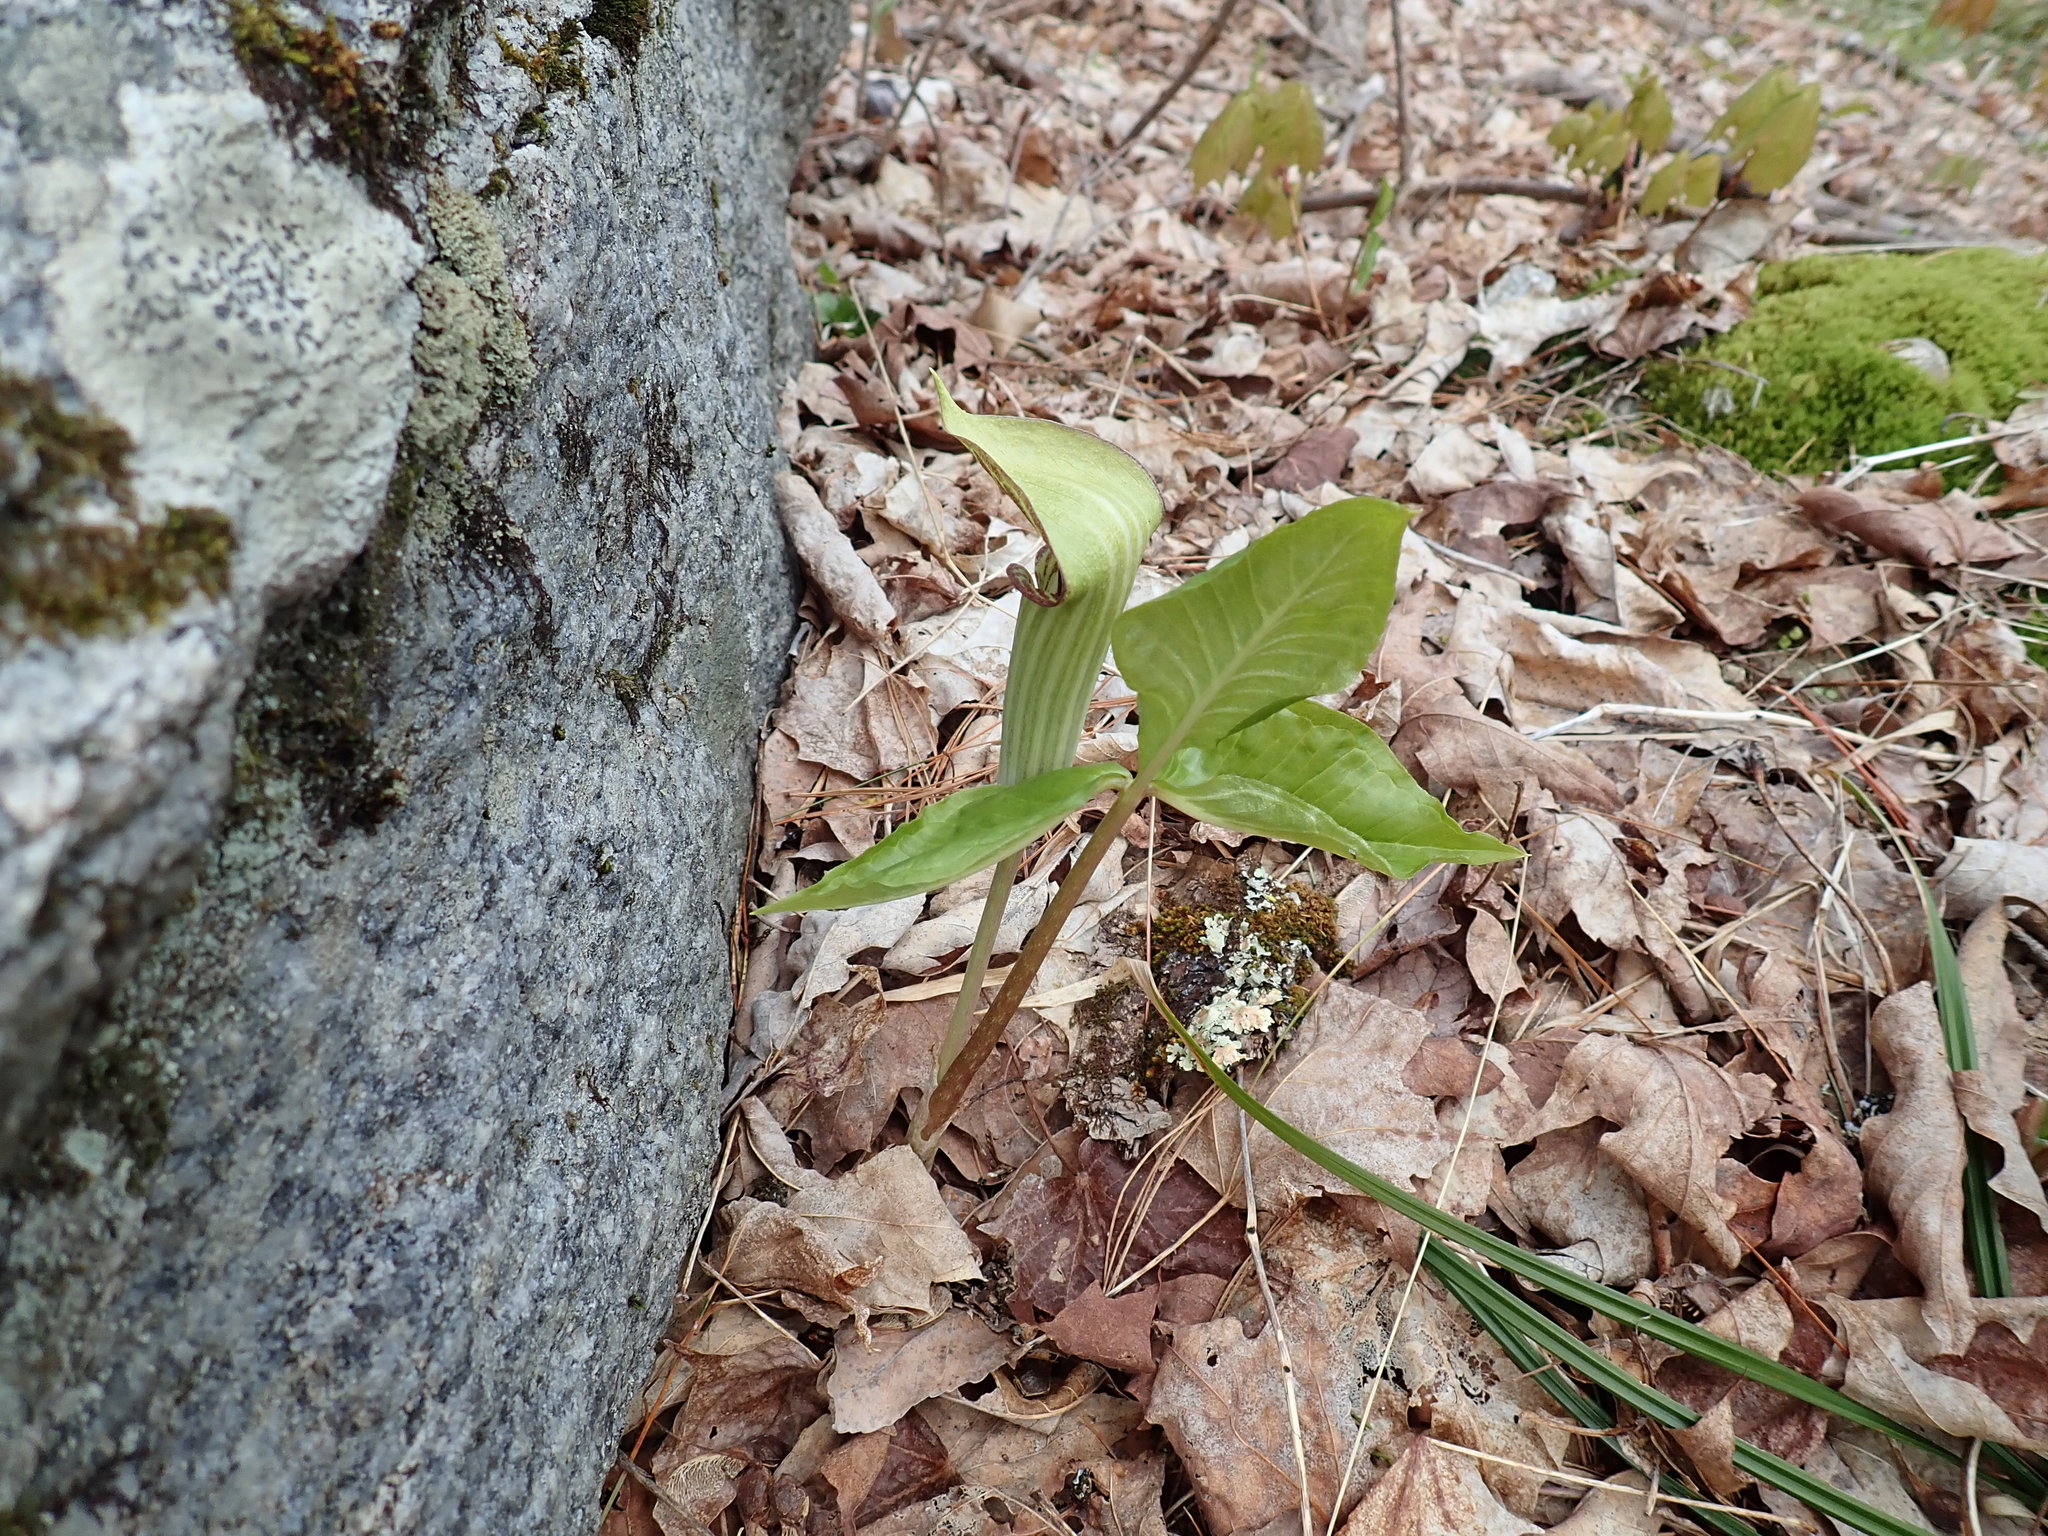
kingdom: Plantae
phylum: Tracheophyta
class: Liliopsida
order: Alismatales
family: Araceae
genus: Arisaema
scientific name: Arisaema triphyllum
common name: Jack-in-the-pulpit
